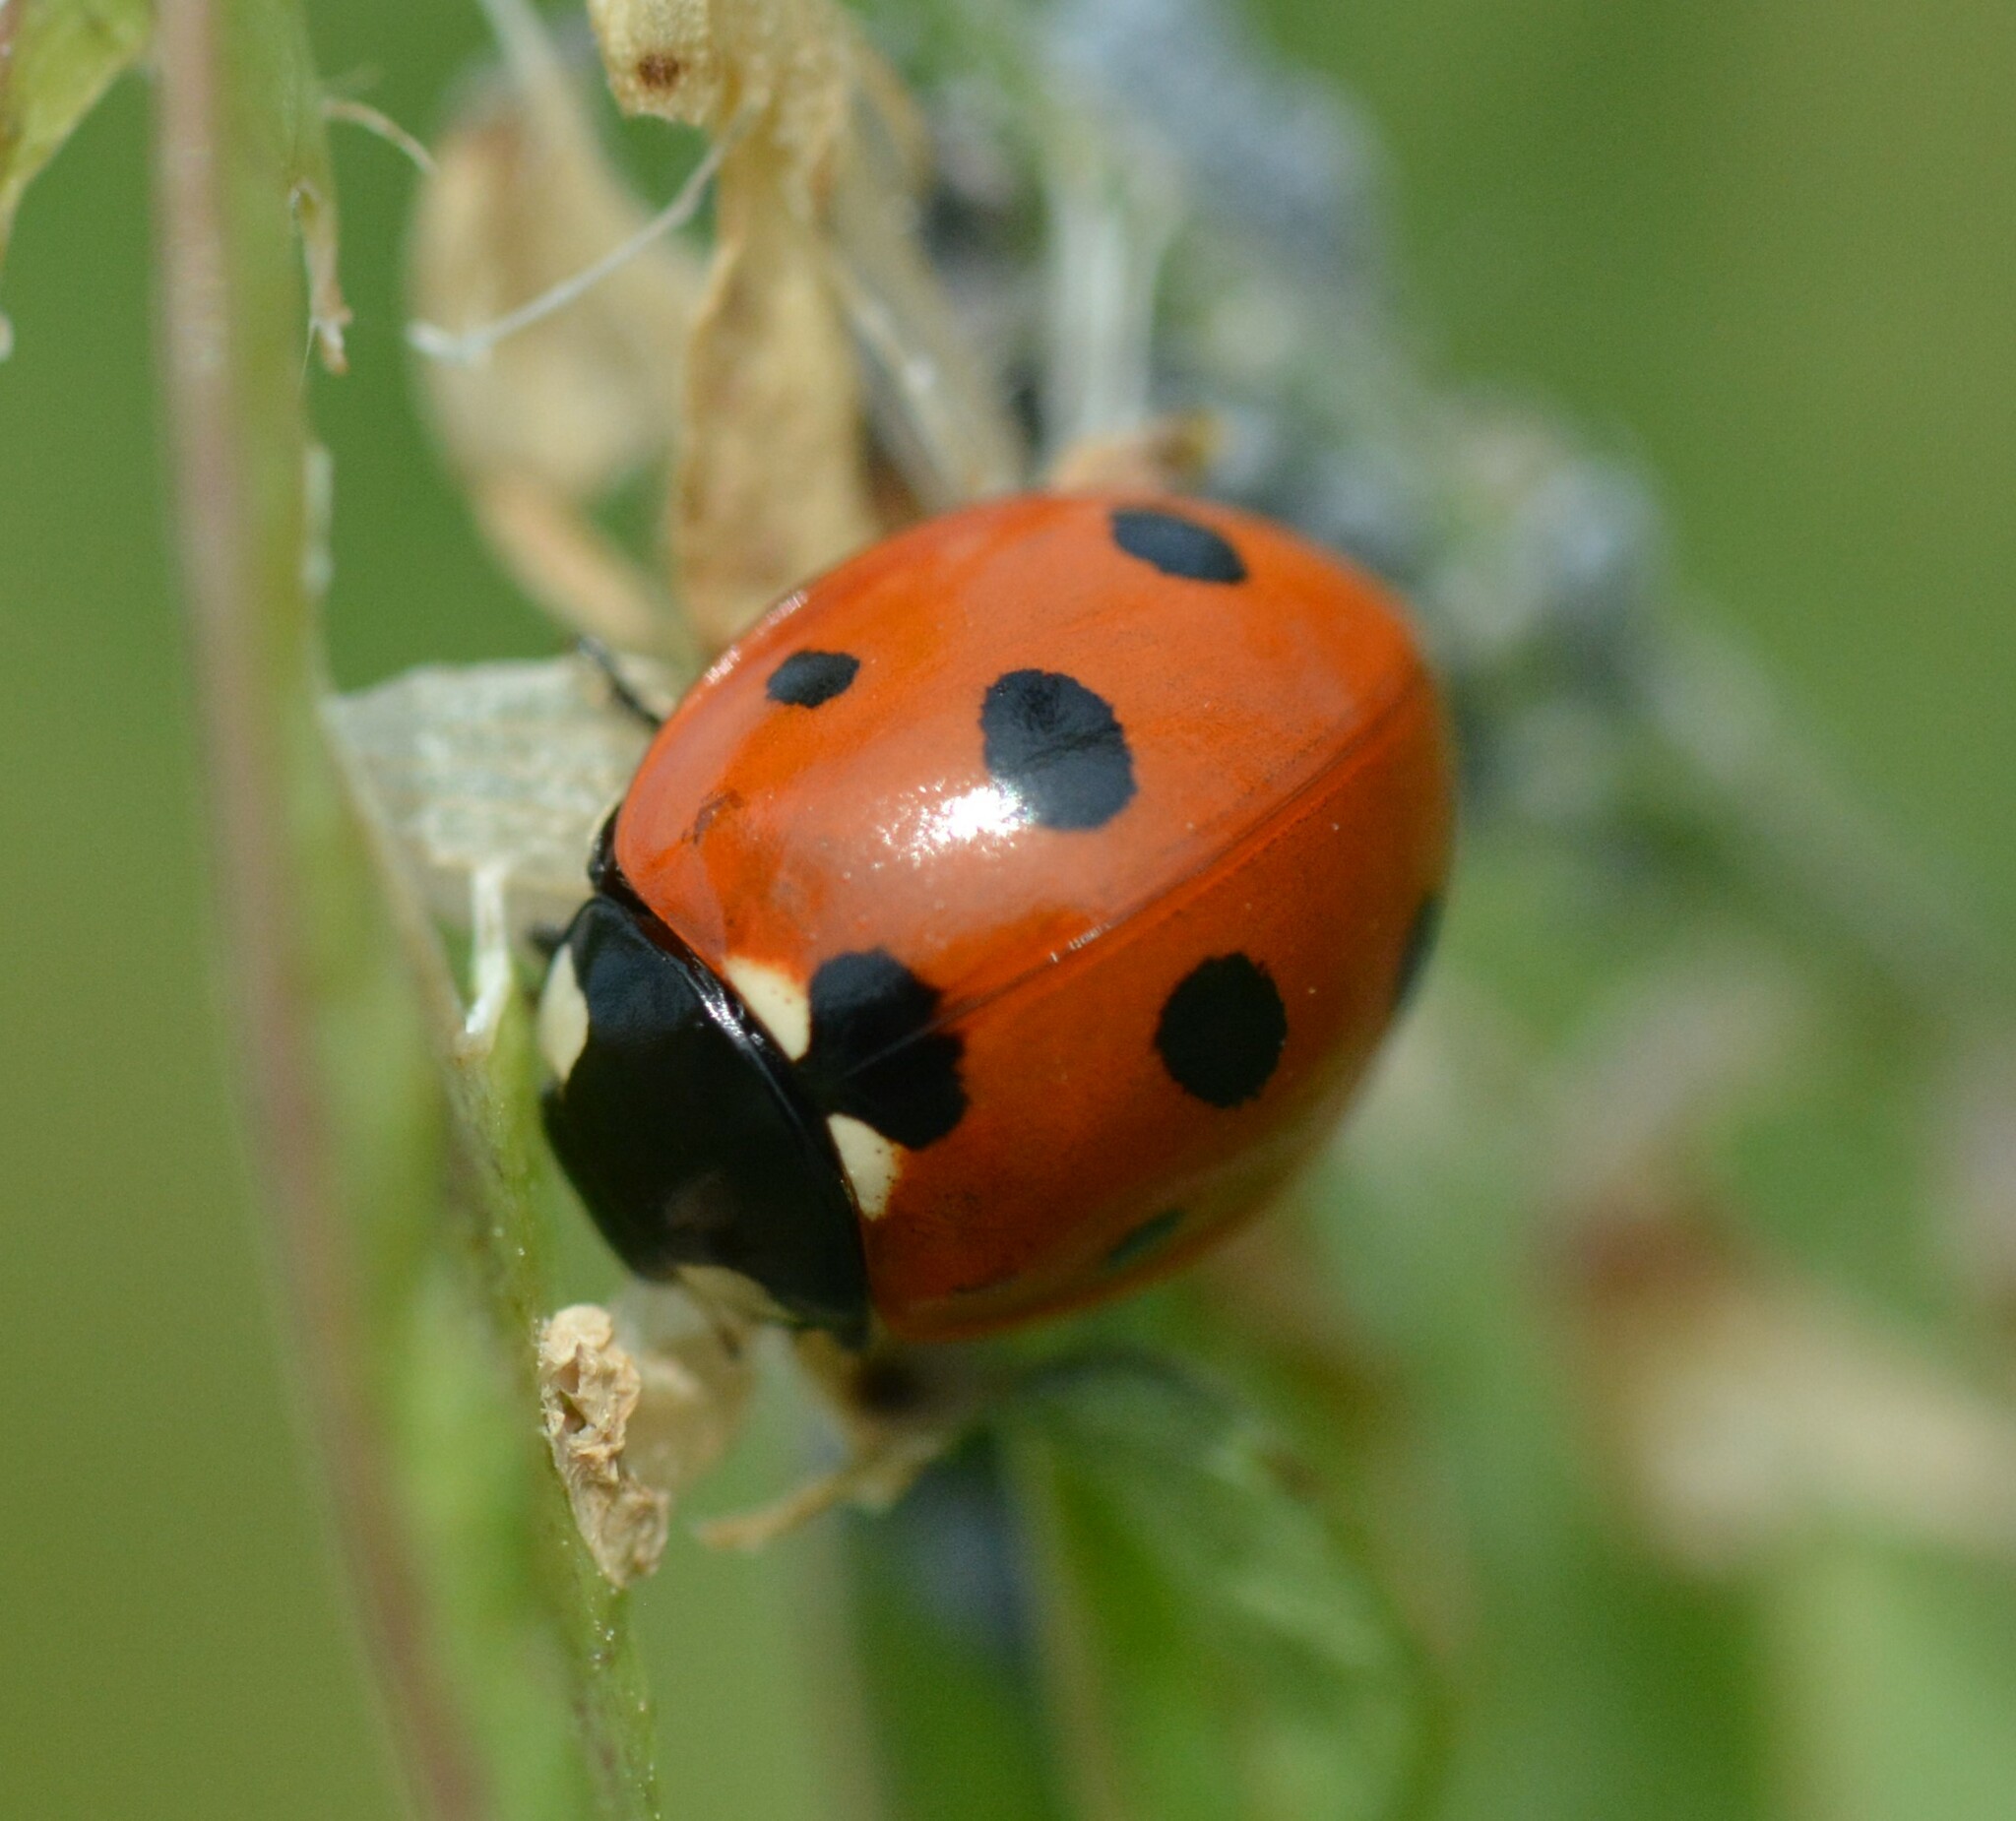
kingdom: Animalia
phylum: Arthropoda
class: Insecta
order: Coleoptera
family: Coccinellidae
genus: Coccinella
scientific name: Coccinella septempunctata
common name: Sevenspotted lady beetle
